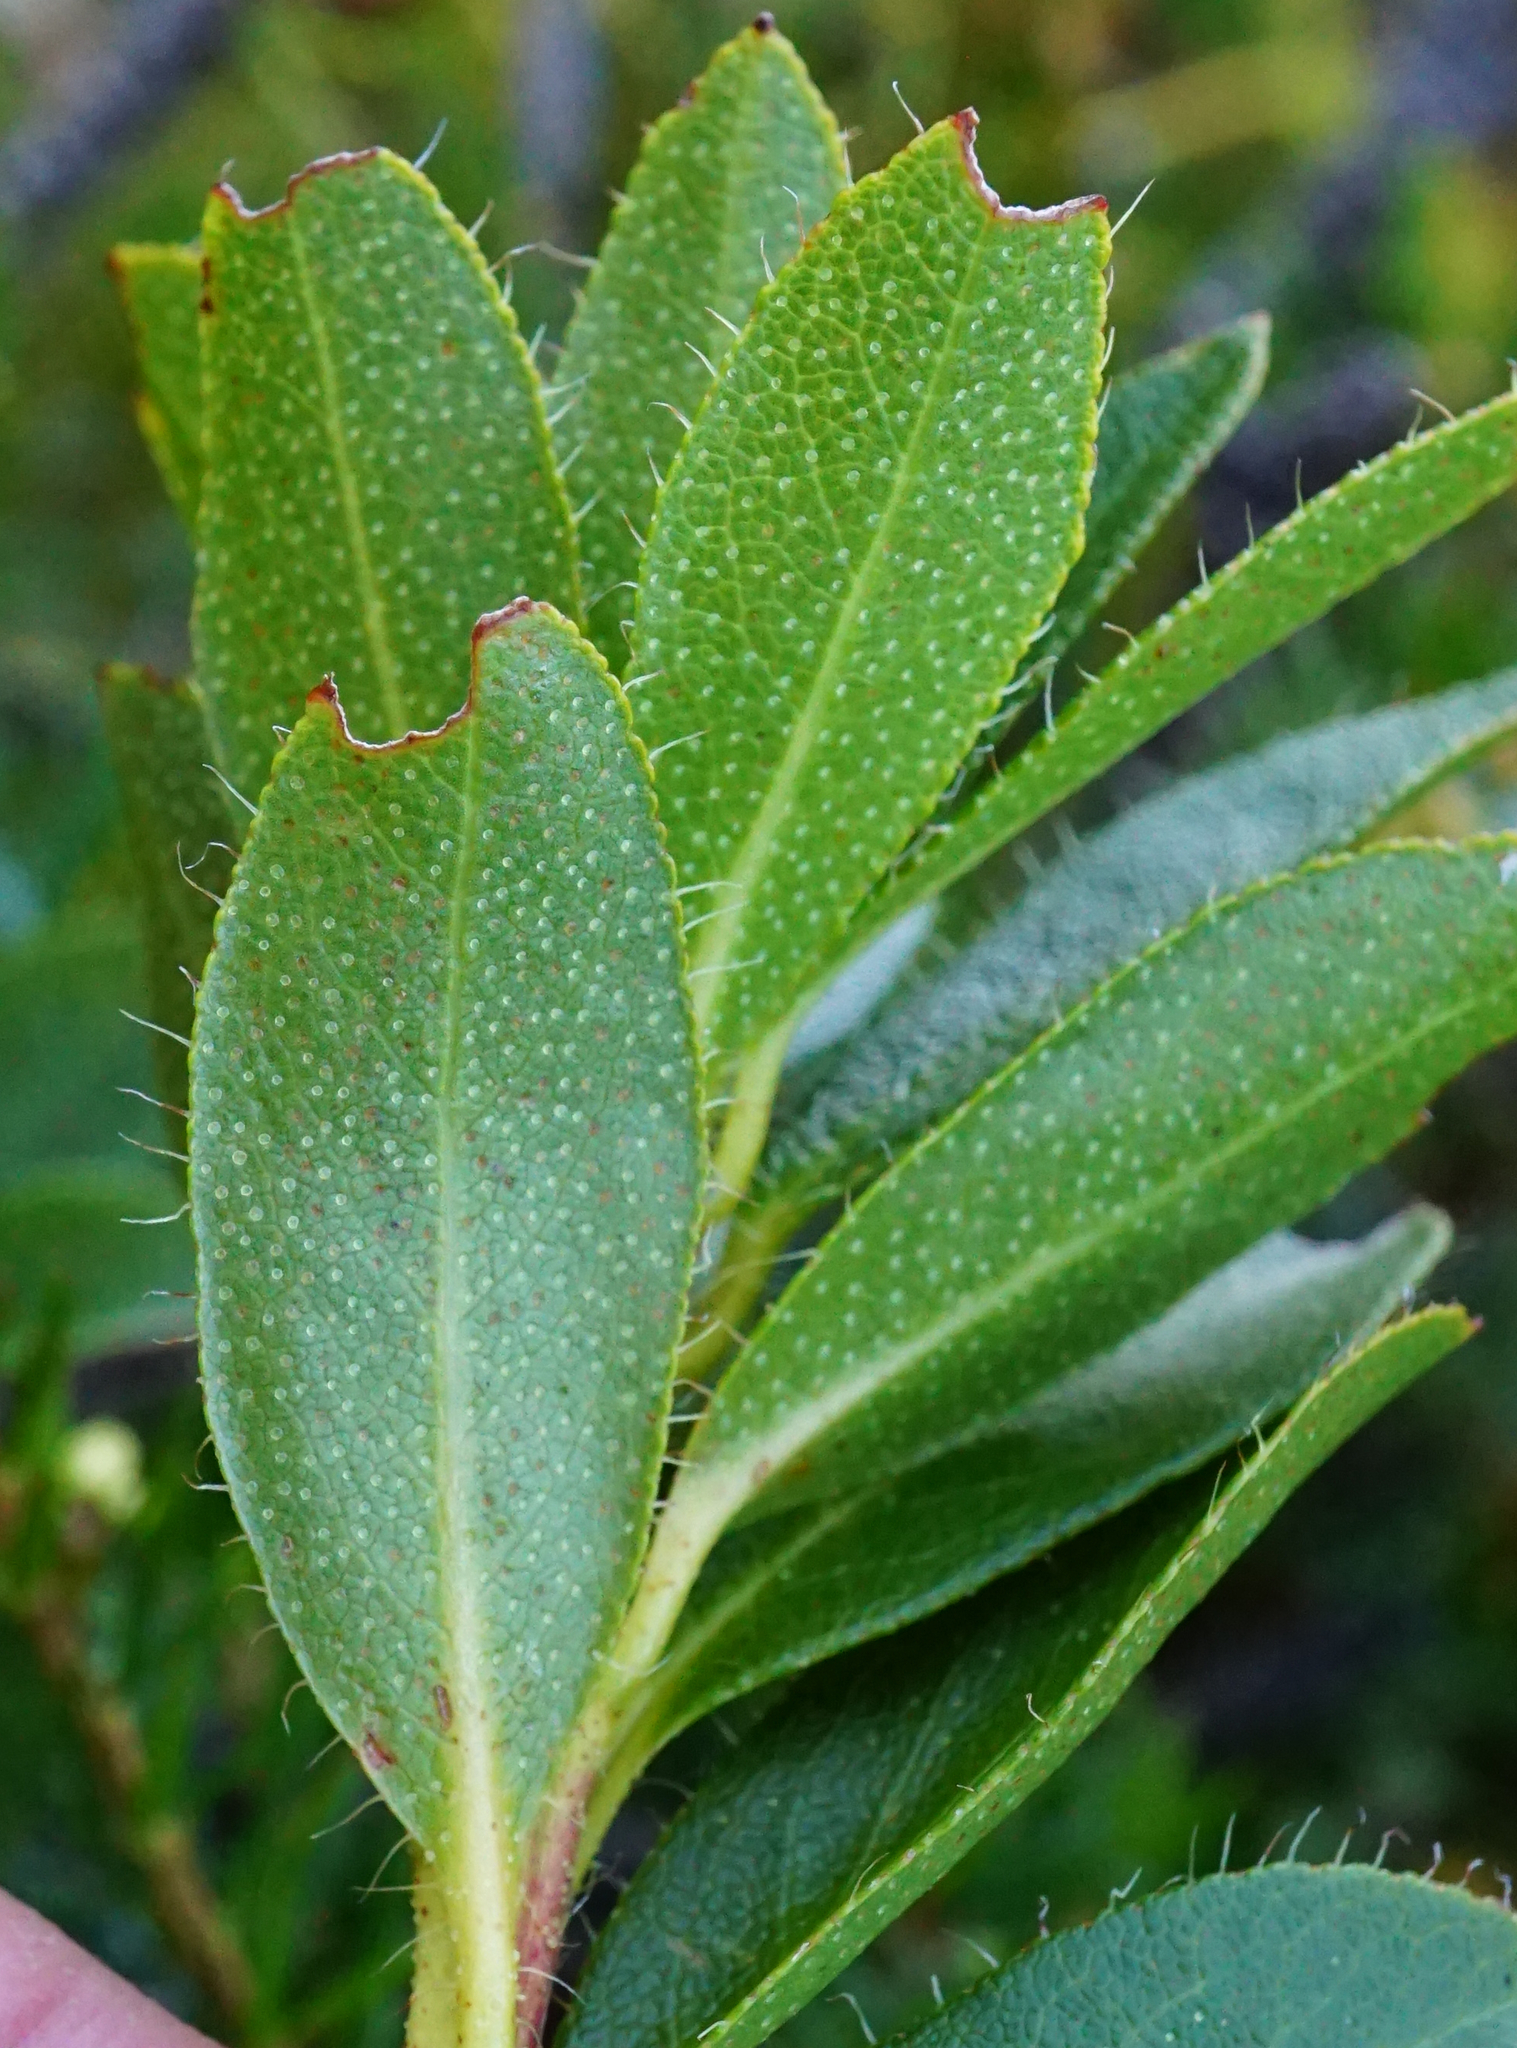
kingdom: Plantae
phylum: Tracheophyta
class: Magnoliopsida
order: Ericales
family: Ericaceae
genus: Rhododendron
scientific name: Rhododendron hirsutum
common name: Hairy alpenrose
